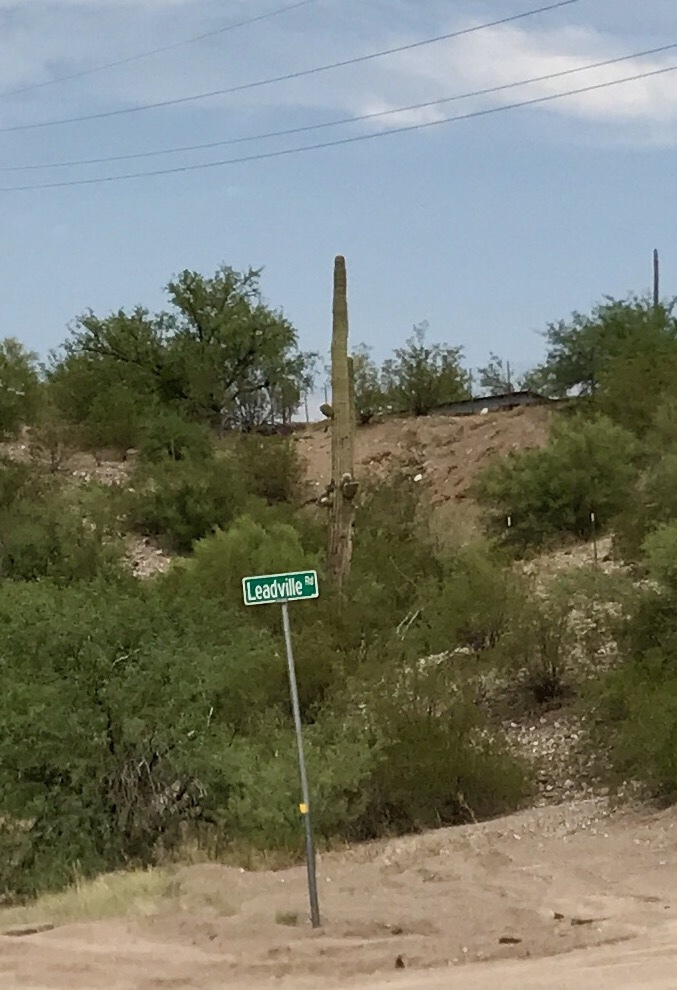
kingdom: Plantae
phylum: Tracheophyta
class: Magnoliopsida
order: Caryophyllales
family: Cactaceae
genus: Carnegiea
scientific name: Carnegiea gigantea
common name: Saguaro
